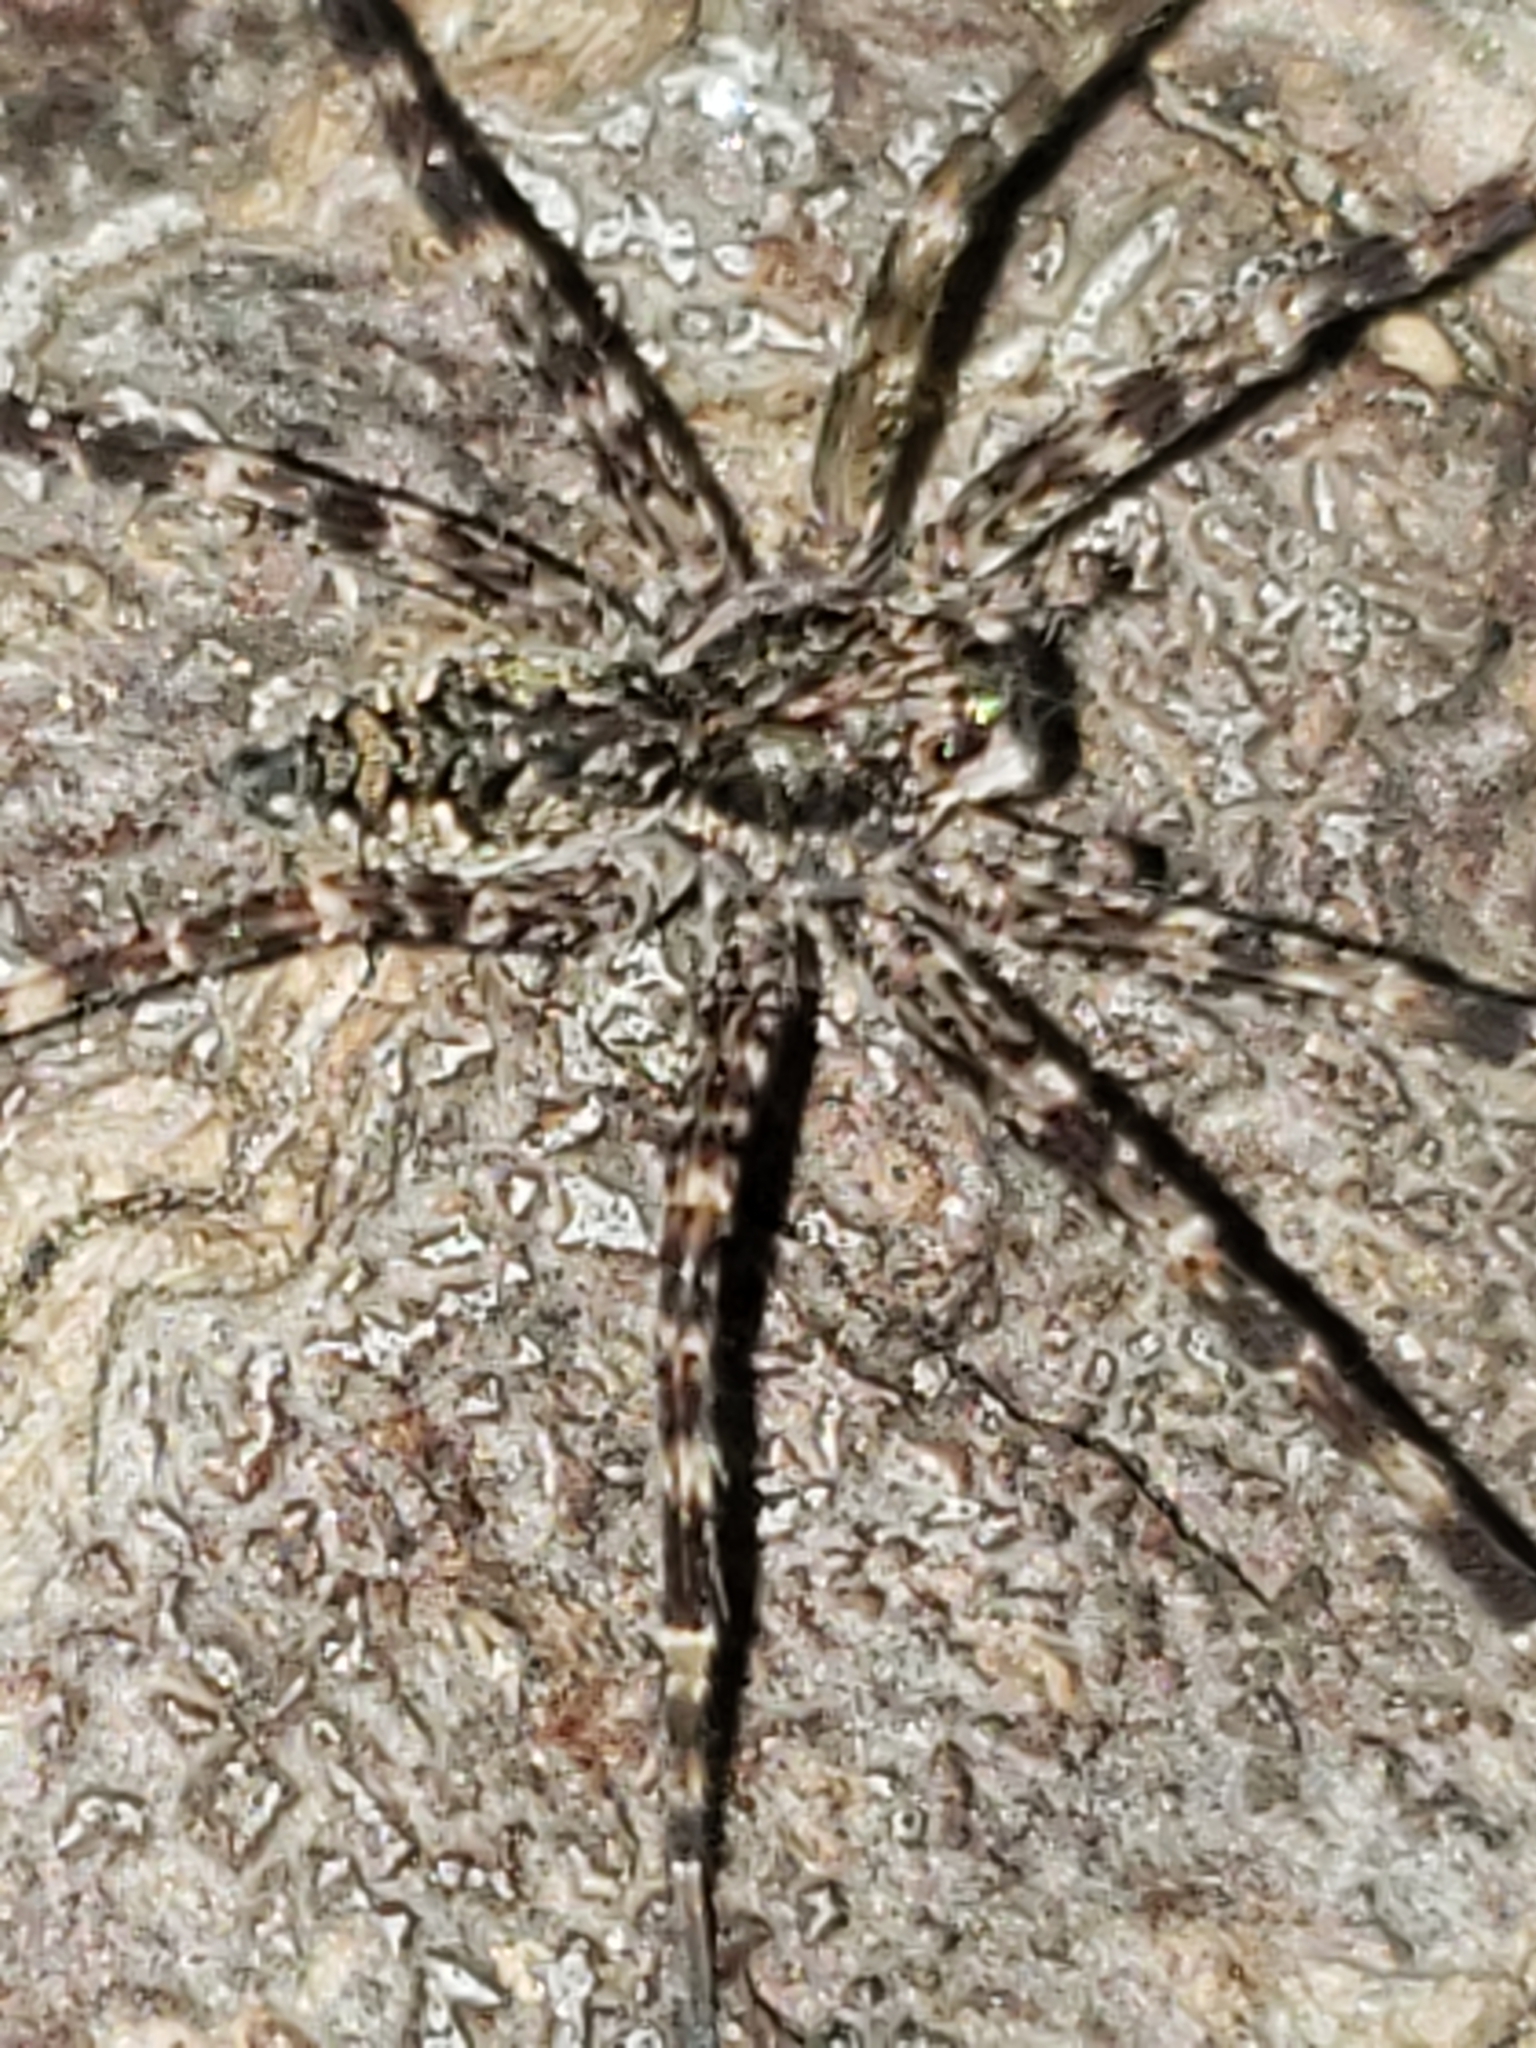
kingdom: Animalia
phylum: Arthropoda
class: Arachnida
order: Araneae
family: Pisauridae
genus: Dolomedes
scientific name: Dolomedes tenebrosus
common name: Dark fishing spider
